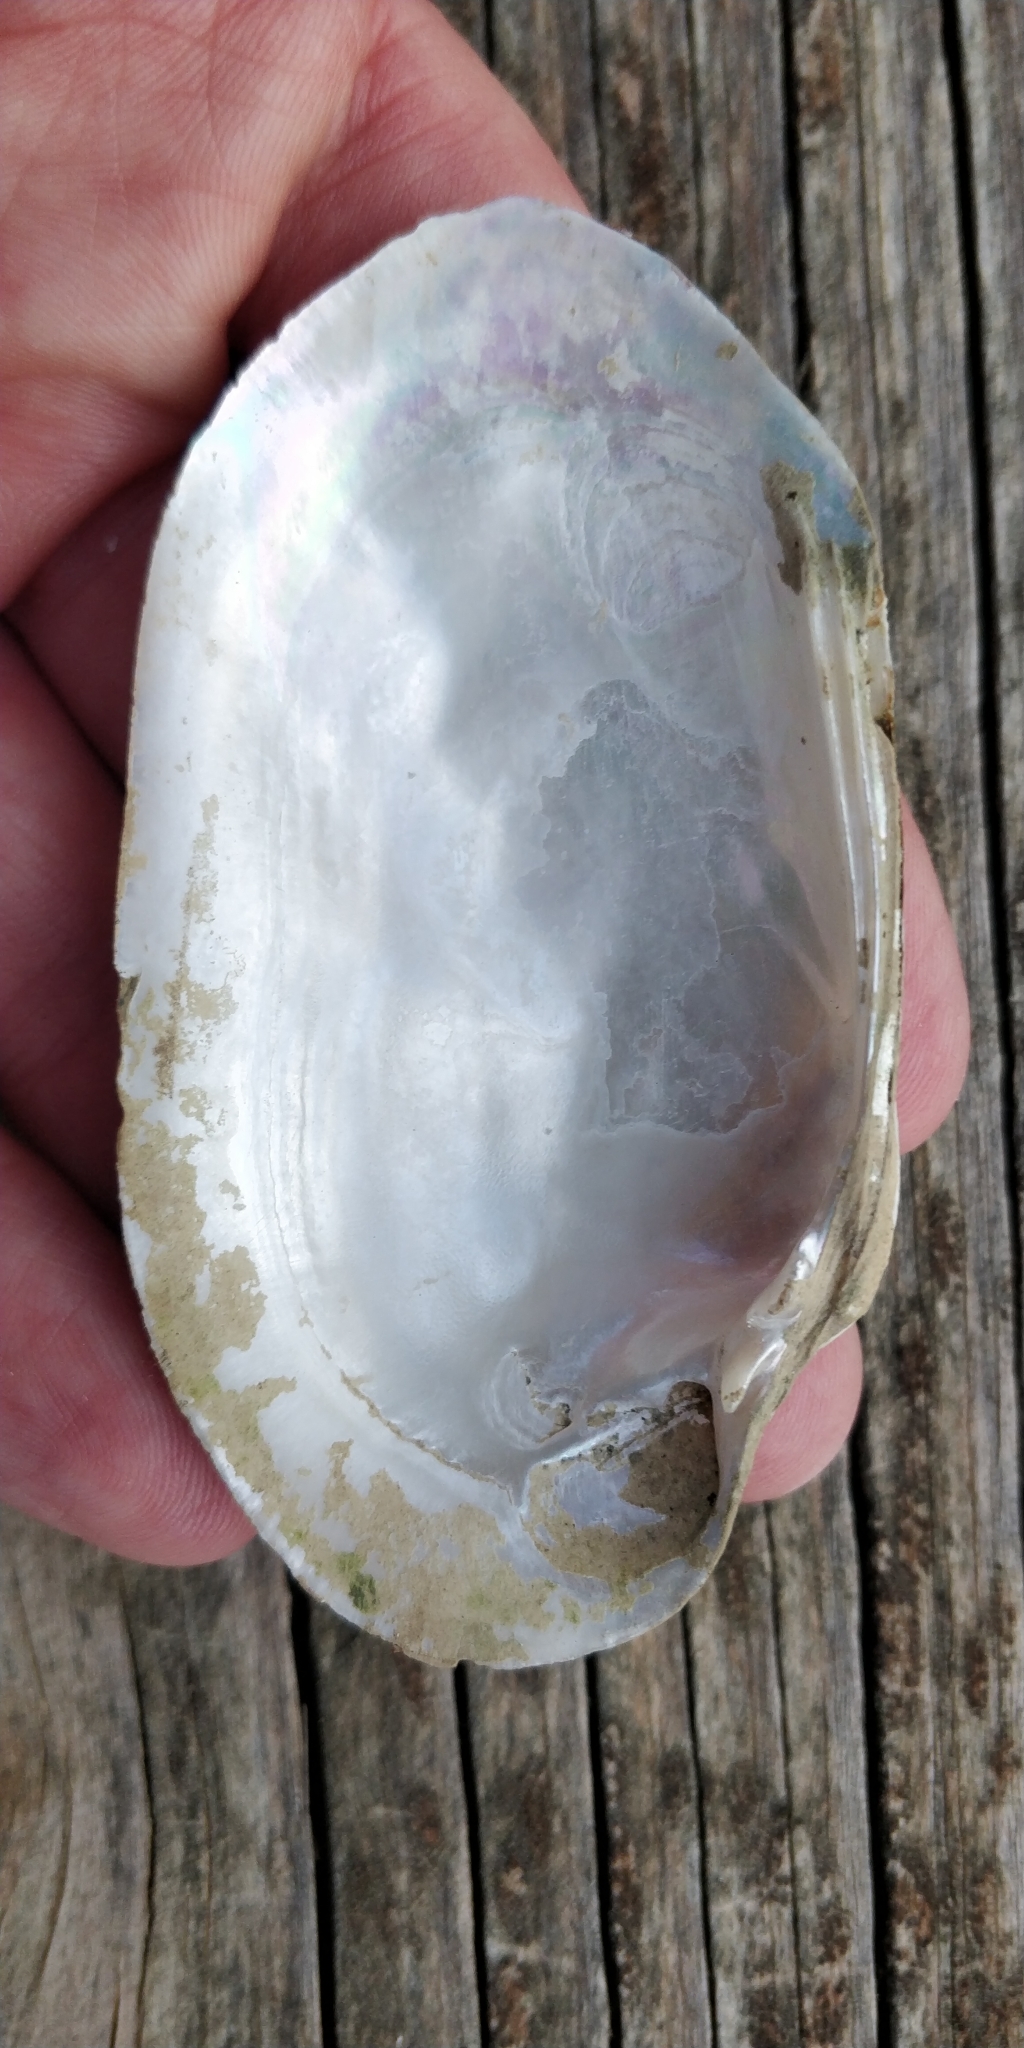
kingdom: Animalia
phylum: Mollusca
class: Bivalvia
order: Unionida
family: Unionidae
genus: Lampsilis
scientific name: Lampsilis siliquoidea
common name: Fatmucket
